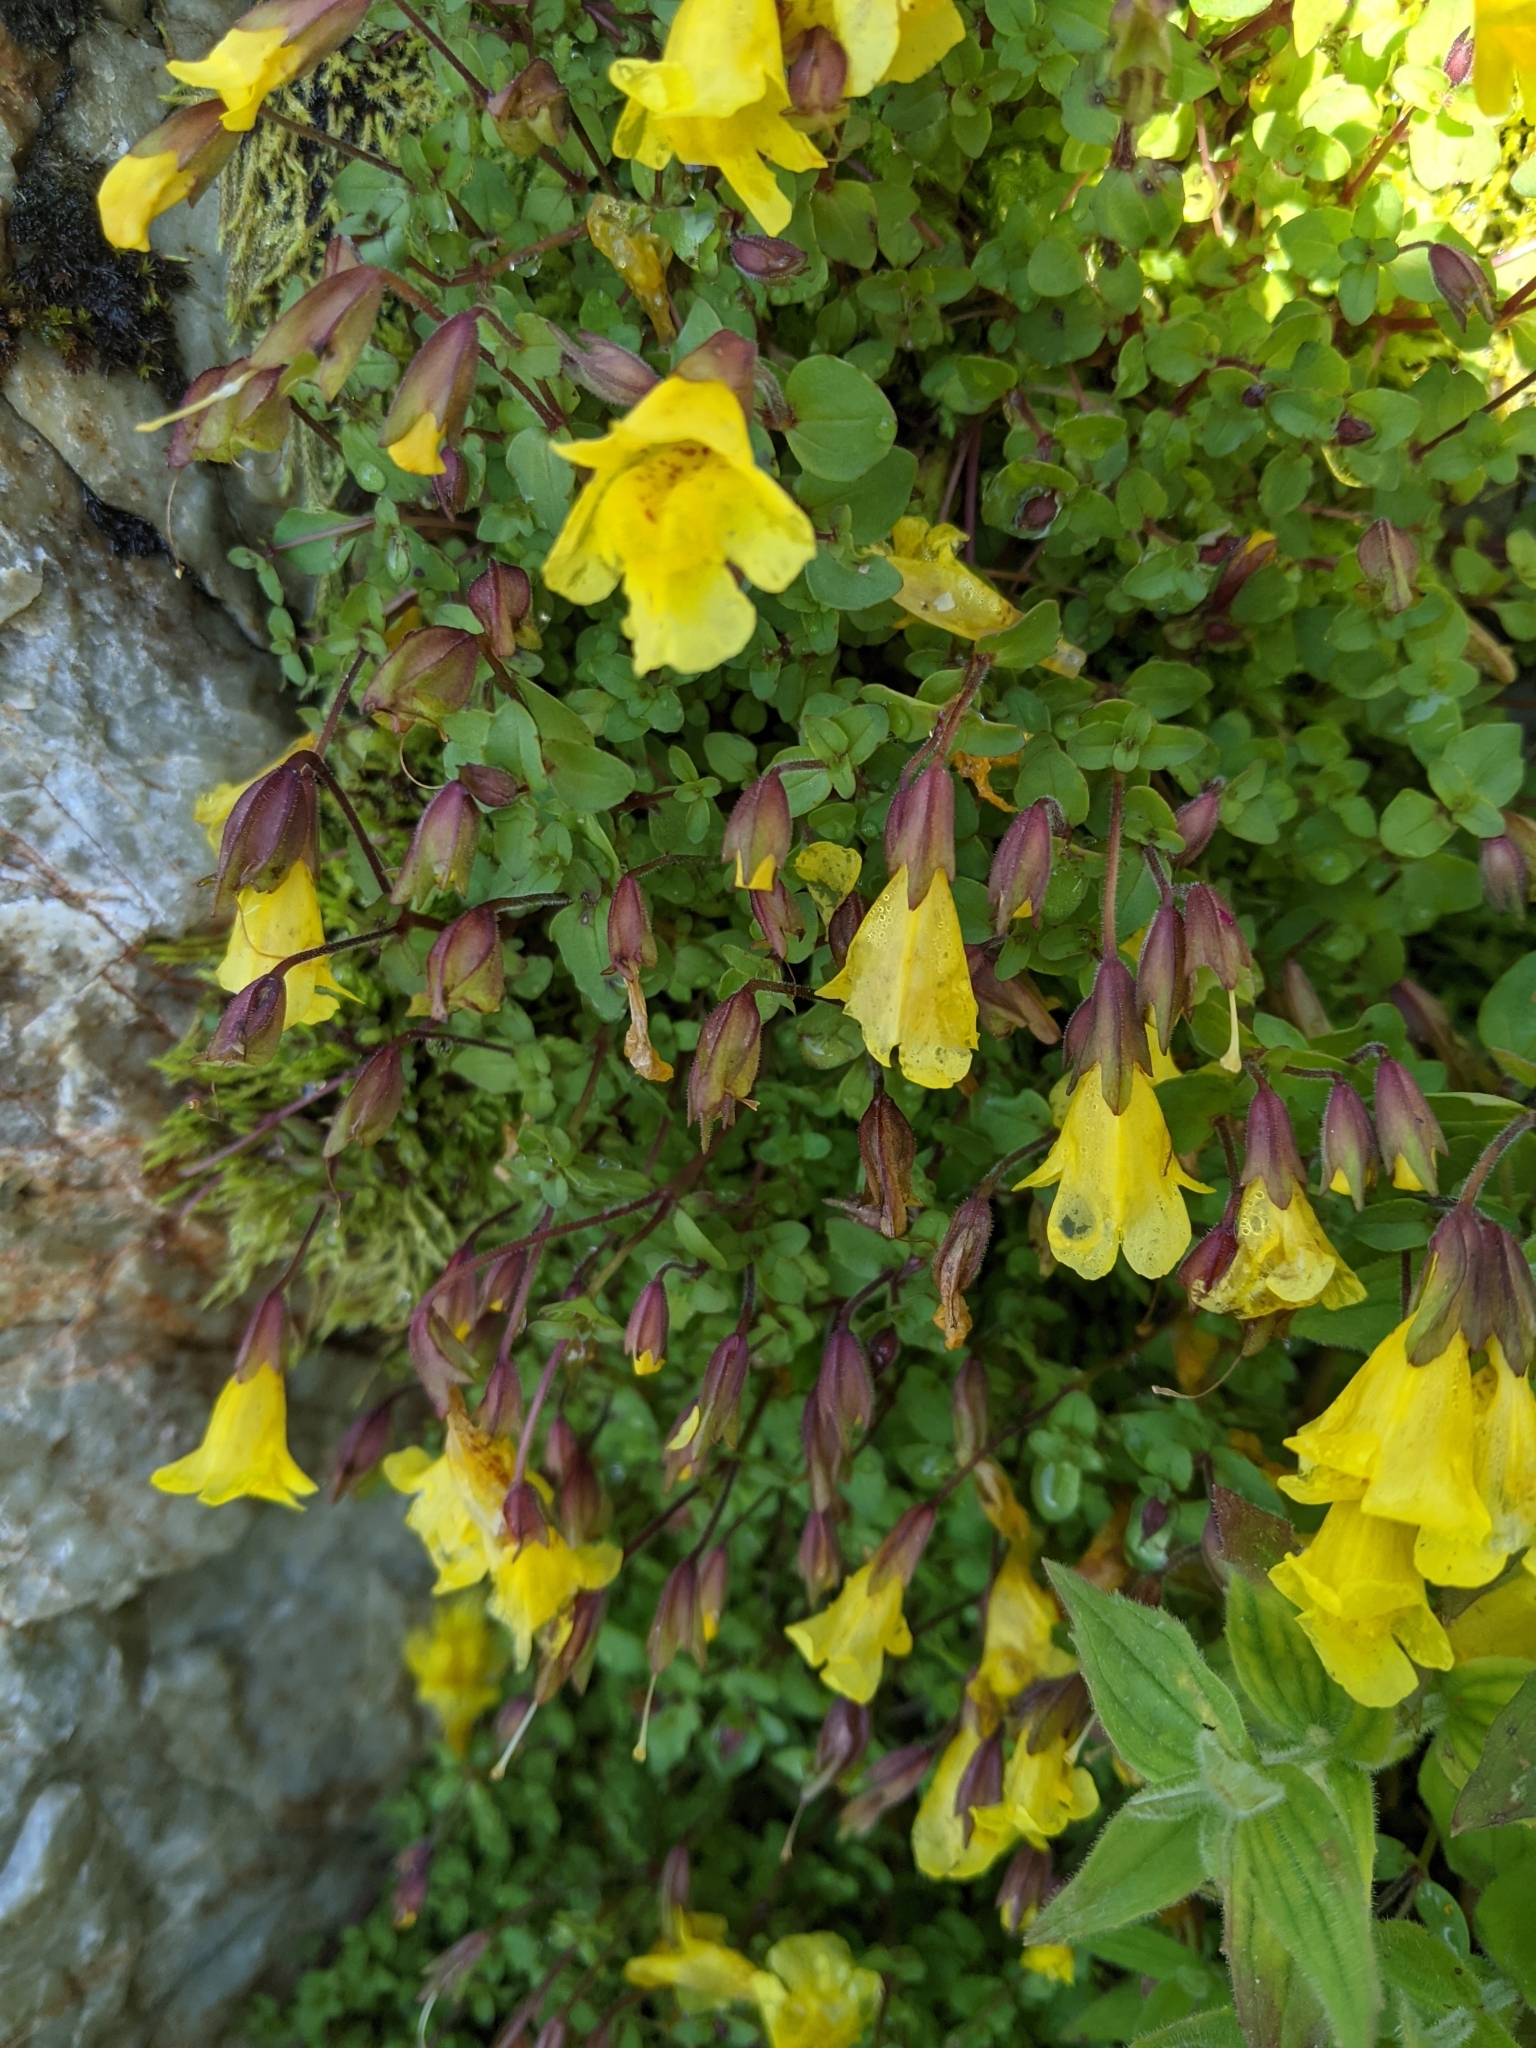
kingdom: Plantae
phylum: Tracheophyta
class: Magnoliopsida
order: Lamiales
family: Phrymaceae
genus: Erythranthe
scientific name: Erythranthe caespitosa
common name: Subalpine monkeyflower
